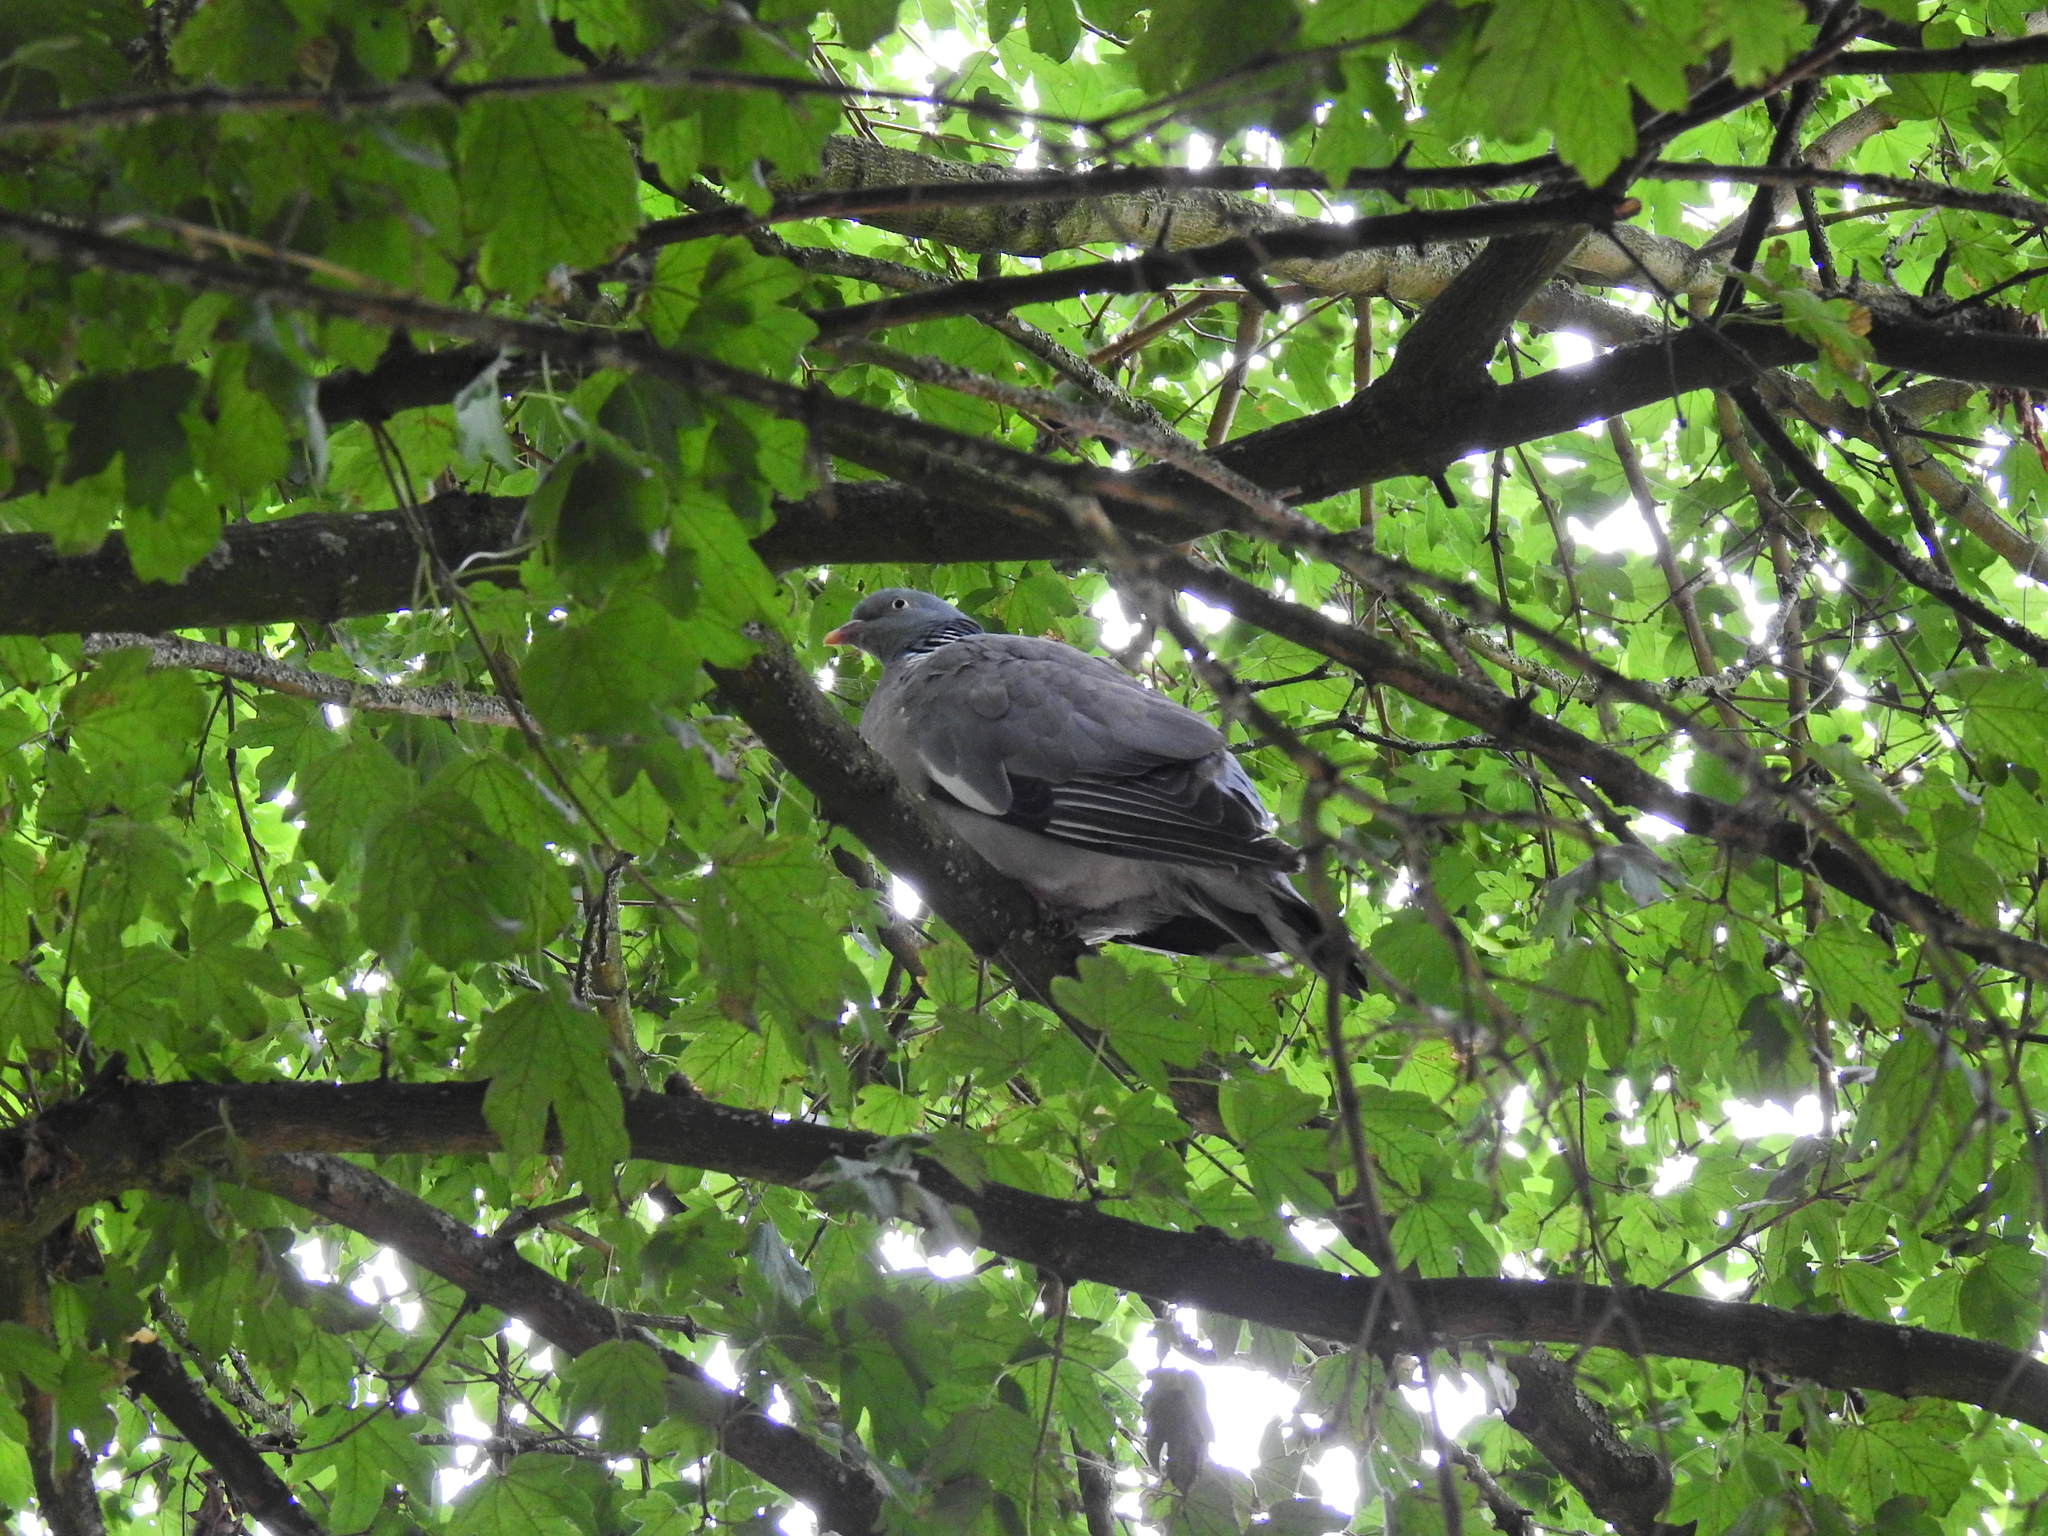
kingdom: Animalia
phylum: Chordata
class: Aves
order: Columbiformes
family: Columbidae
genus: Columba
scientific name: Columba palumbus
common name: Common wood pigeon
